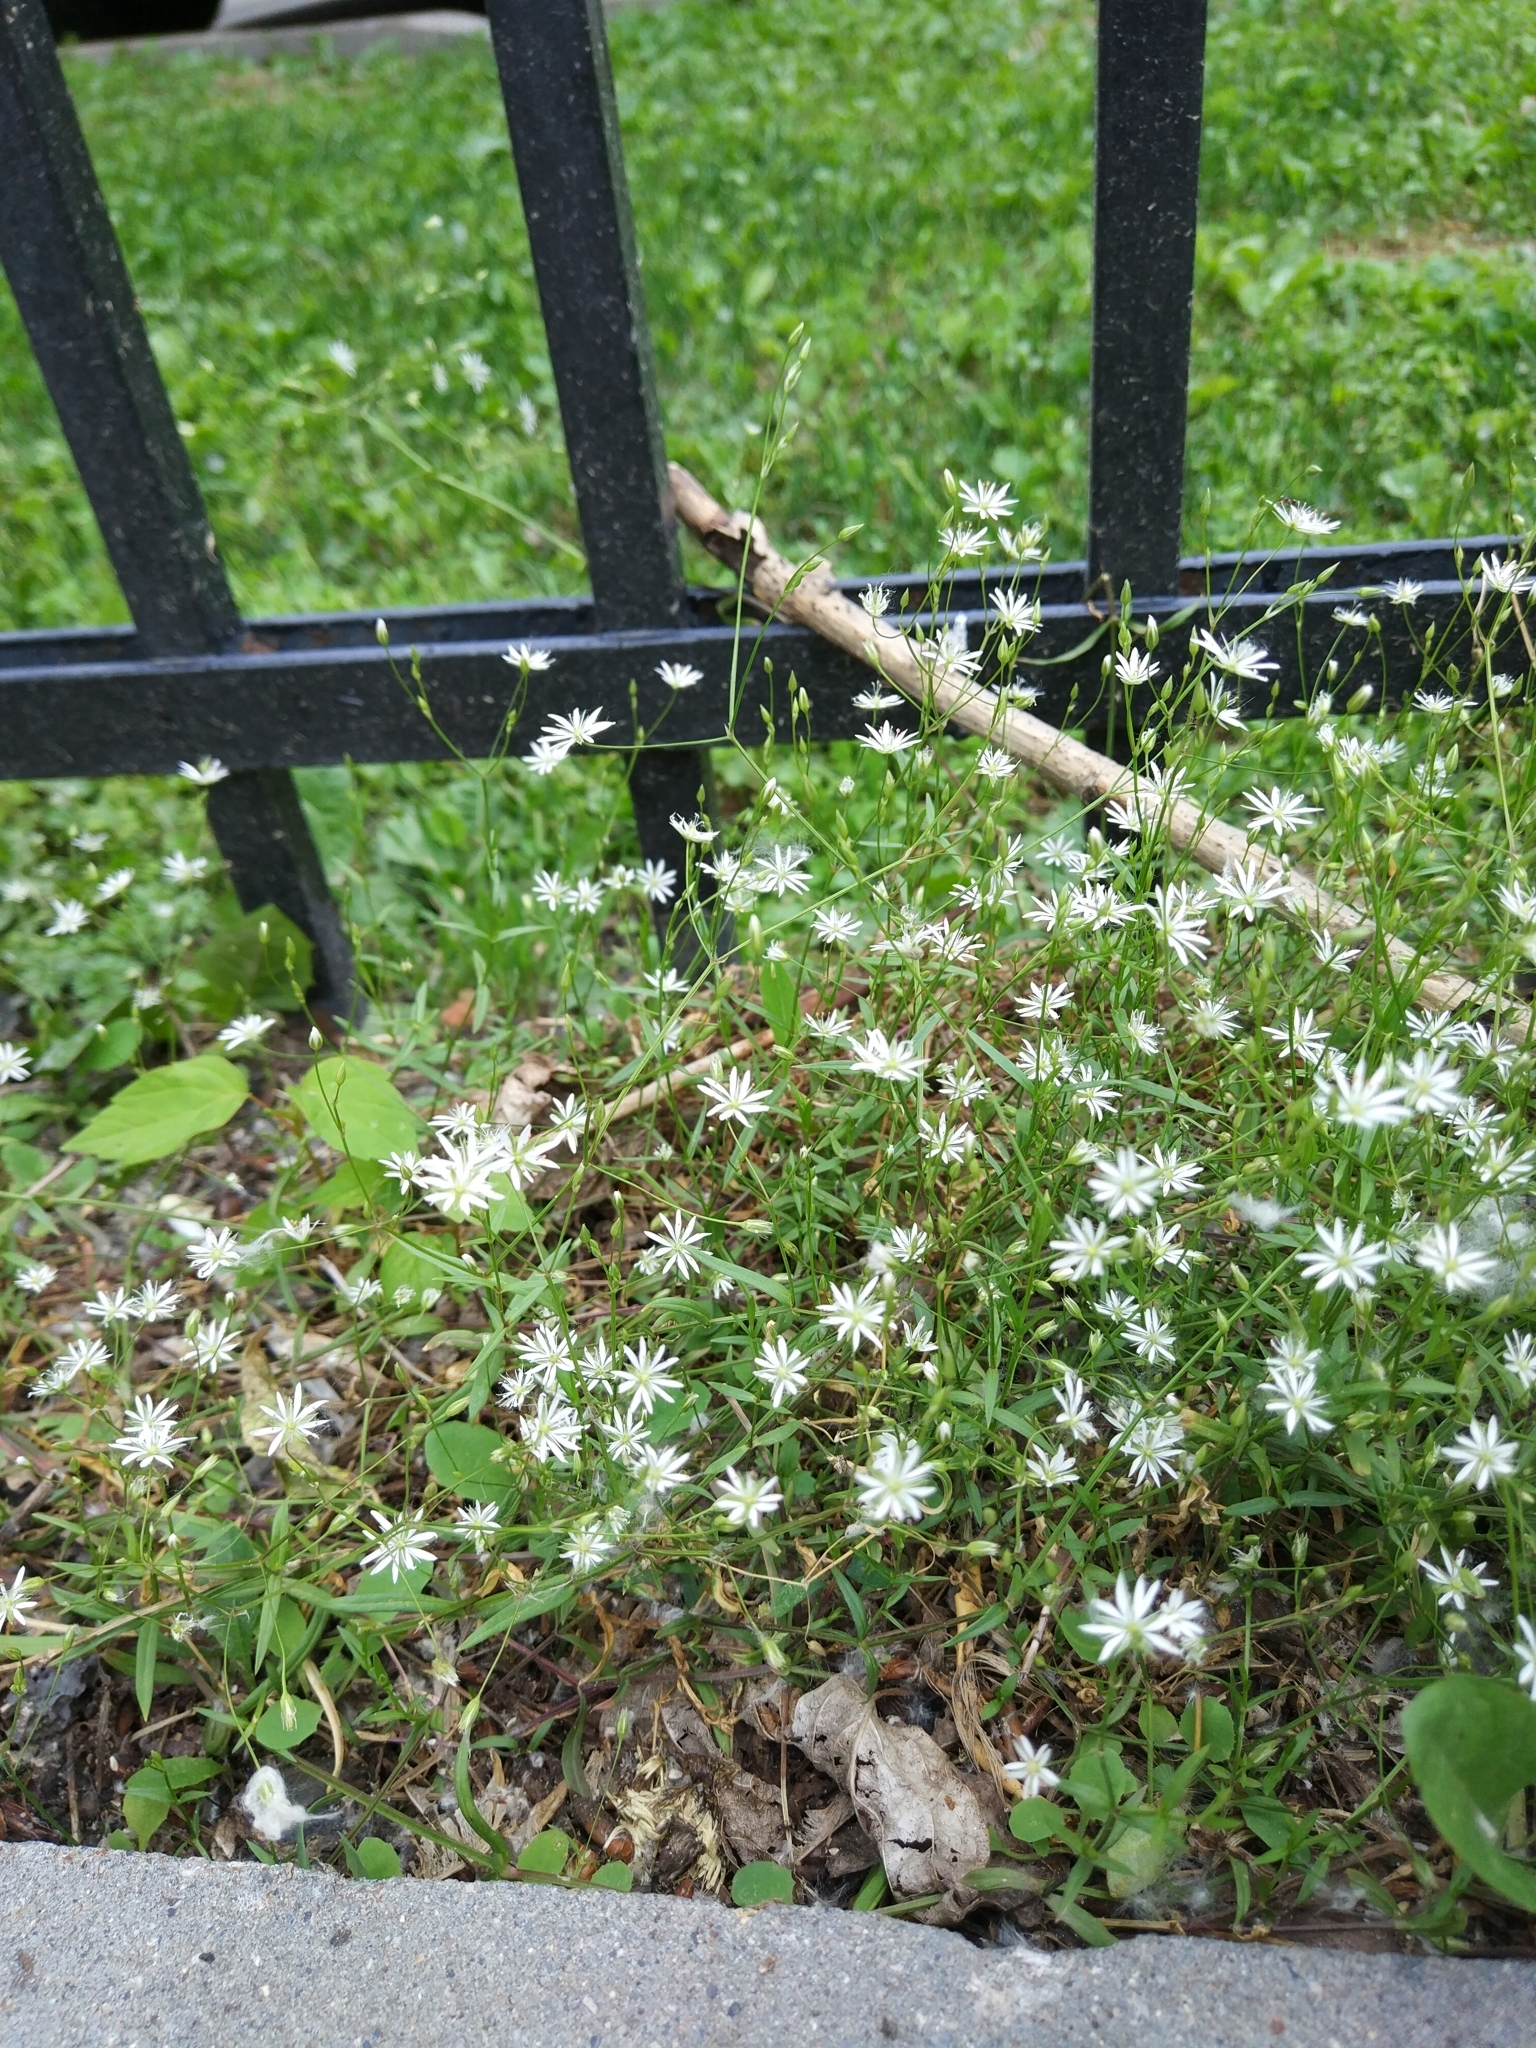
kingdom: Plantae
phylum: Tracheophyta
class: Magnoliopsida
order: Caryophyllales
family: Caryophyllaceae
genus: Stellaria
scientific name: Stellaria graminea
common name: Grass-like starwort
